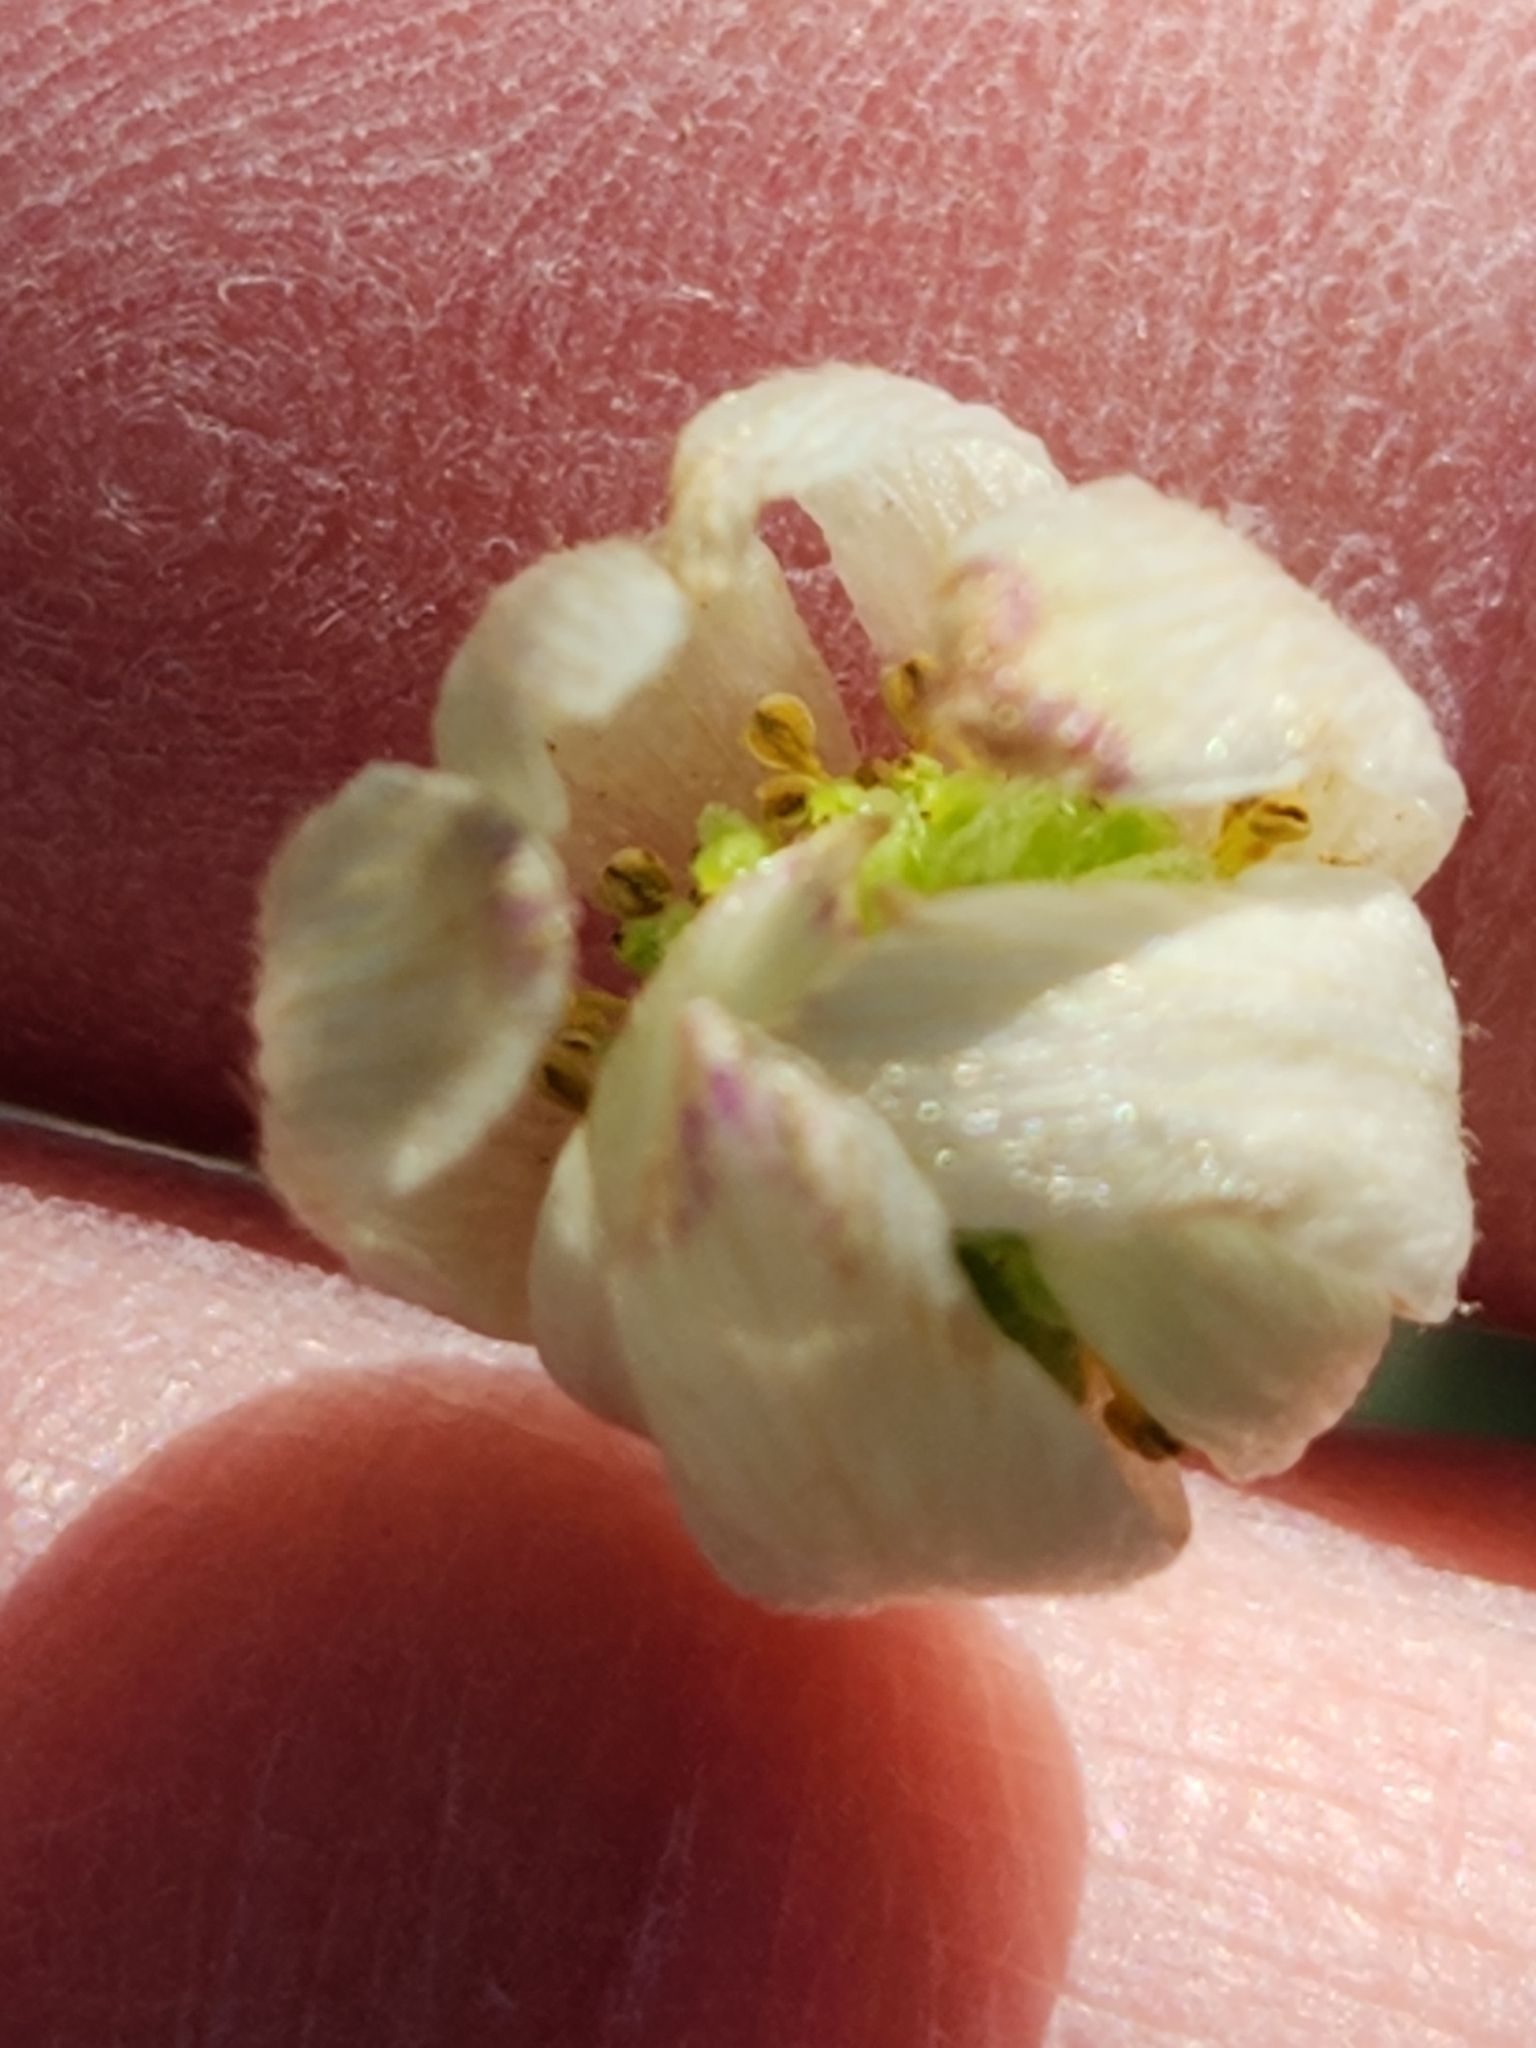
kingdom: Plantae
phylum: Tracheophyta
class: Magnoliopsida
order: Ranunculales
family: Ranunculaceae
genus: Anemone
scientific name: Anemone edwardsiana
